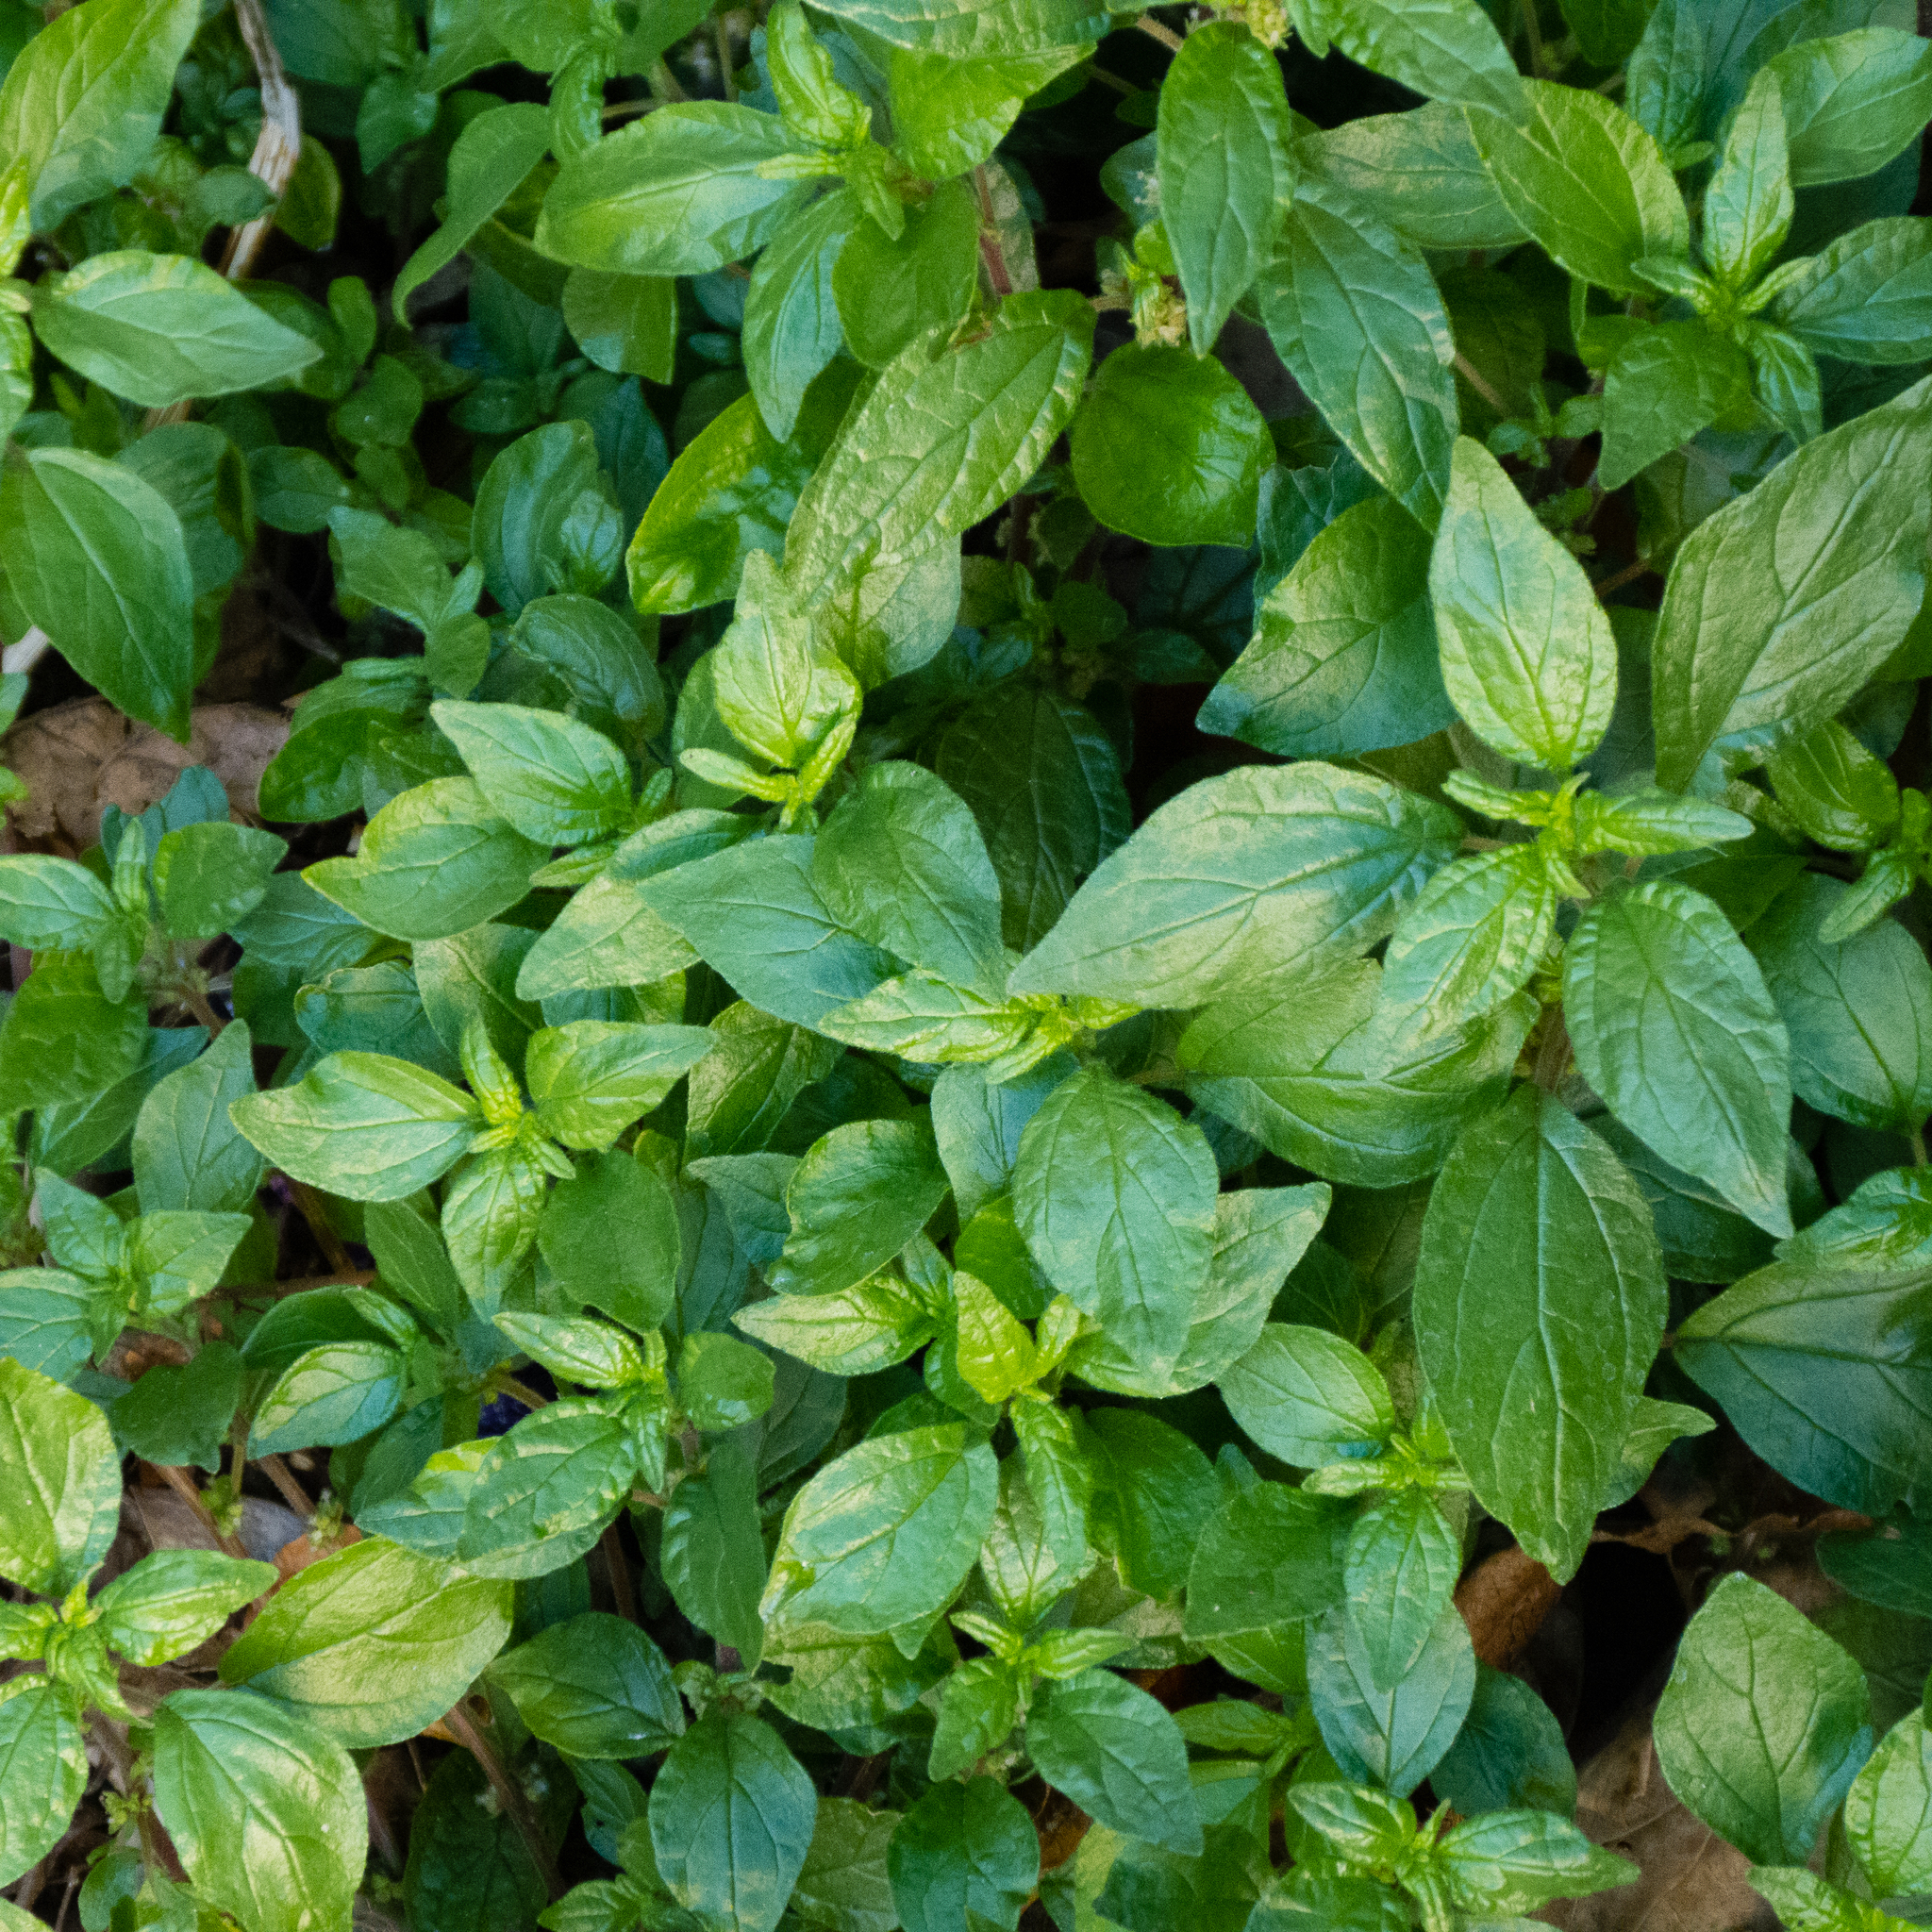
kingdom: Plantae
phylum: Tracheophyta
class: Magnoliopsida
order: Rosales
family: Urticaceae
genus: Parietaria
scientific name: Parietaria judaica
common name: Pellitory-of-the-wall
